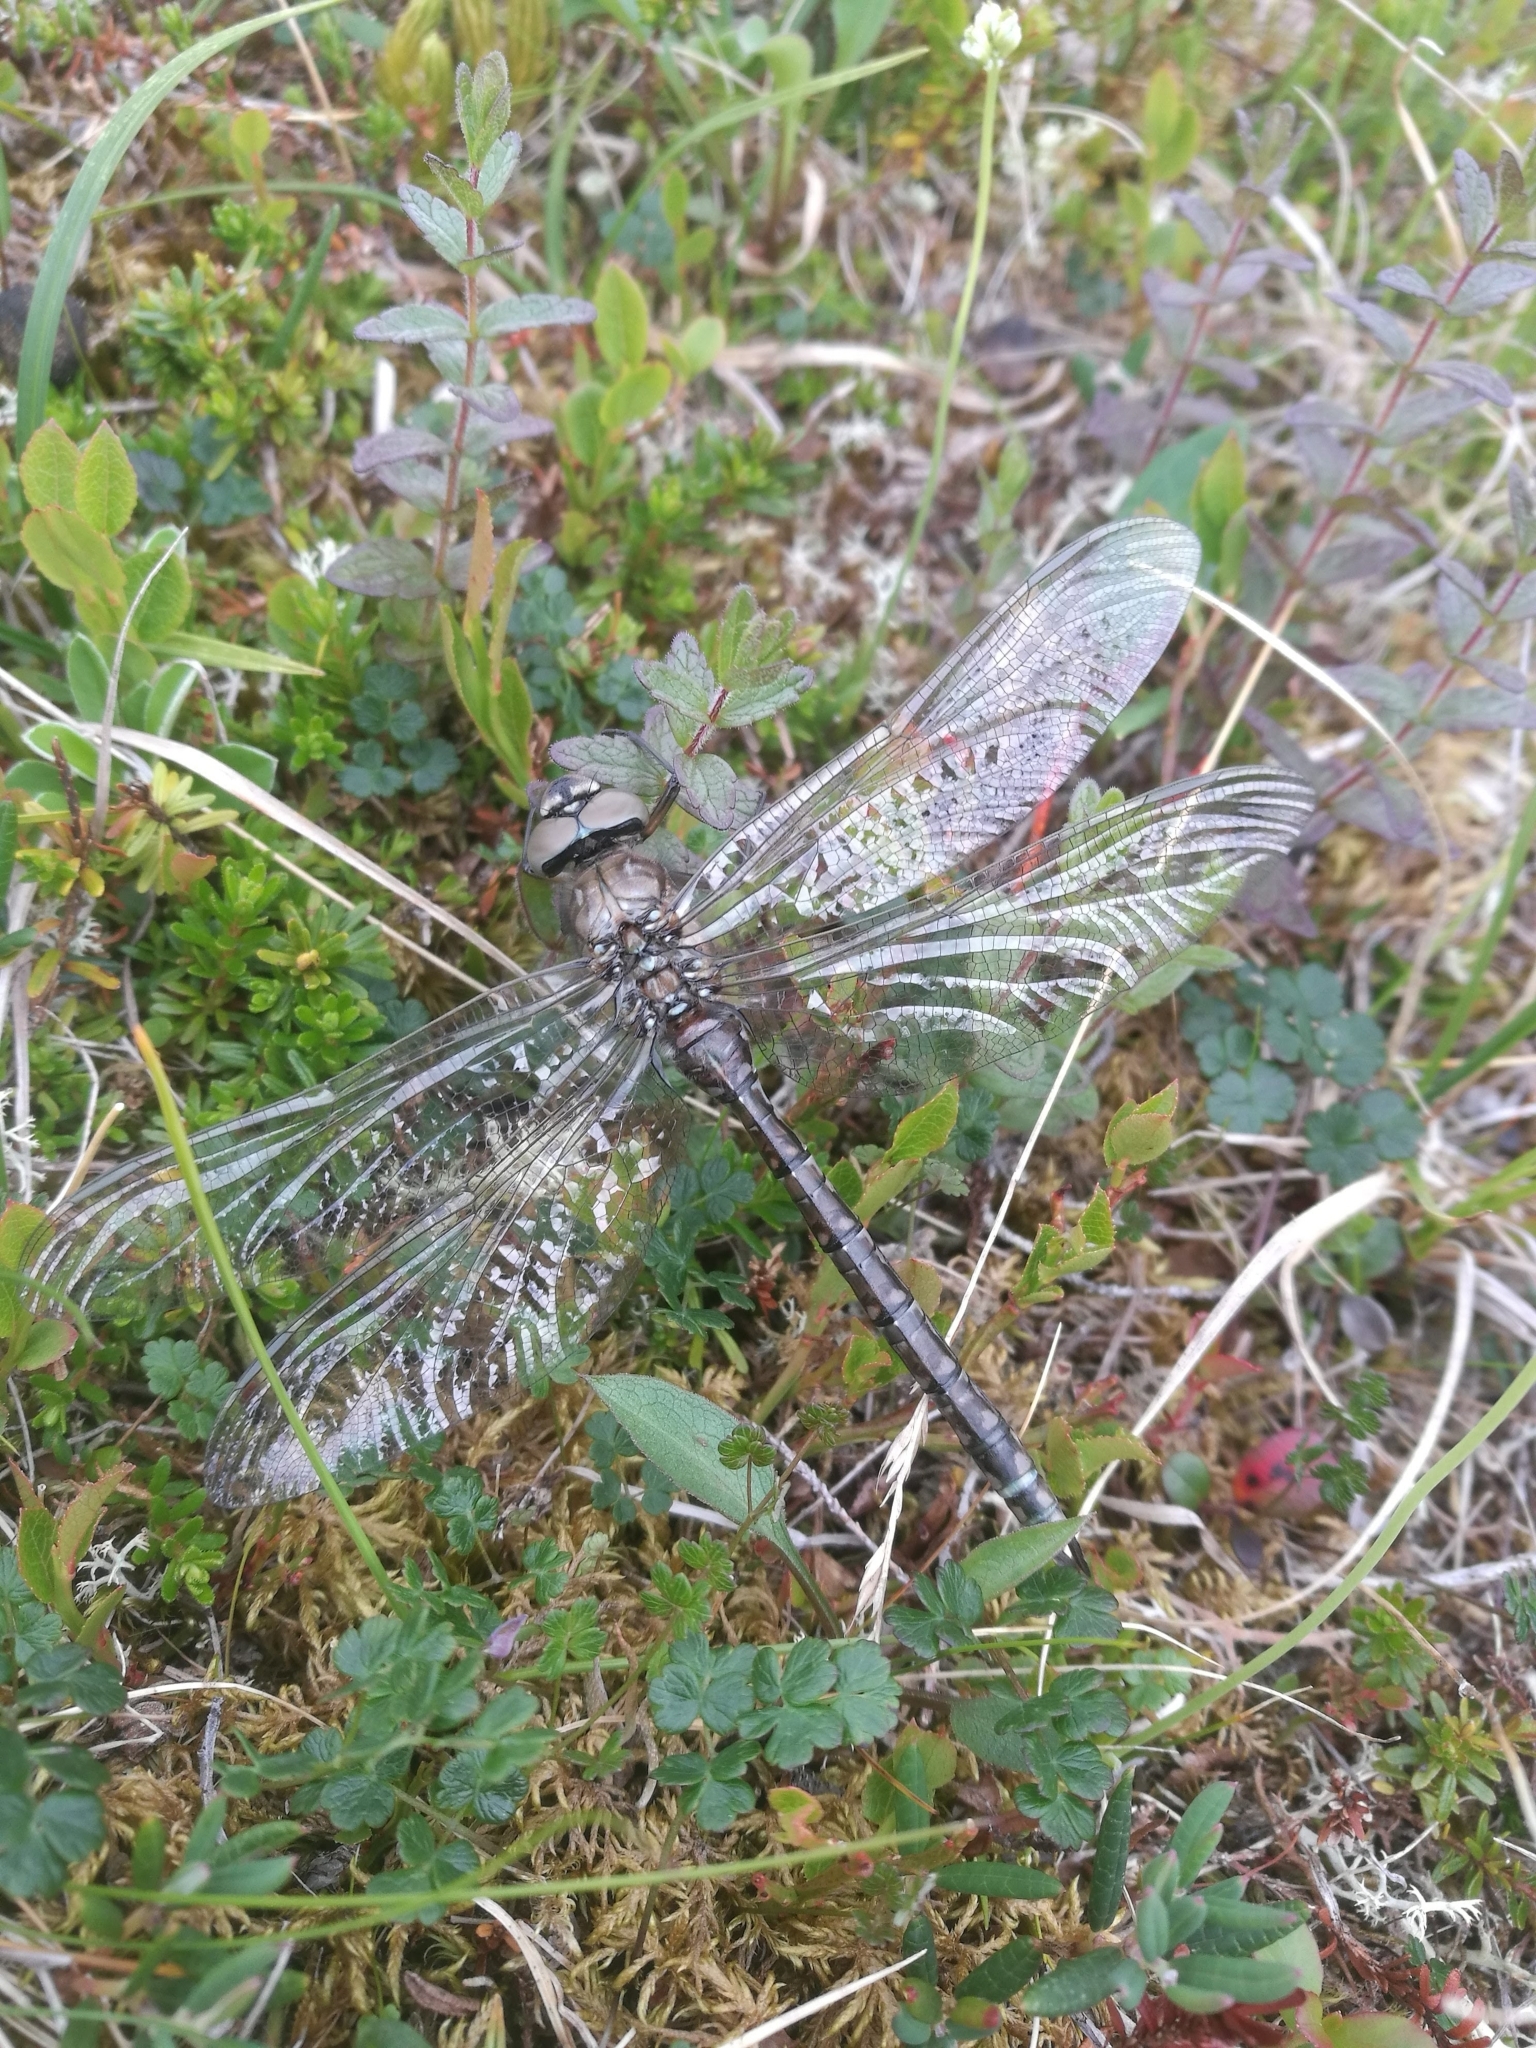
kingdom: Animalia
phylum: Arthropoda
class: Insecta
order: Odonata
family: Aeshnidae
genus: Aeshna
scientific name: Aeshna caerulea
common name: Azure hawker
